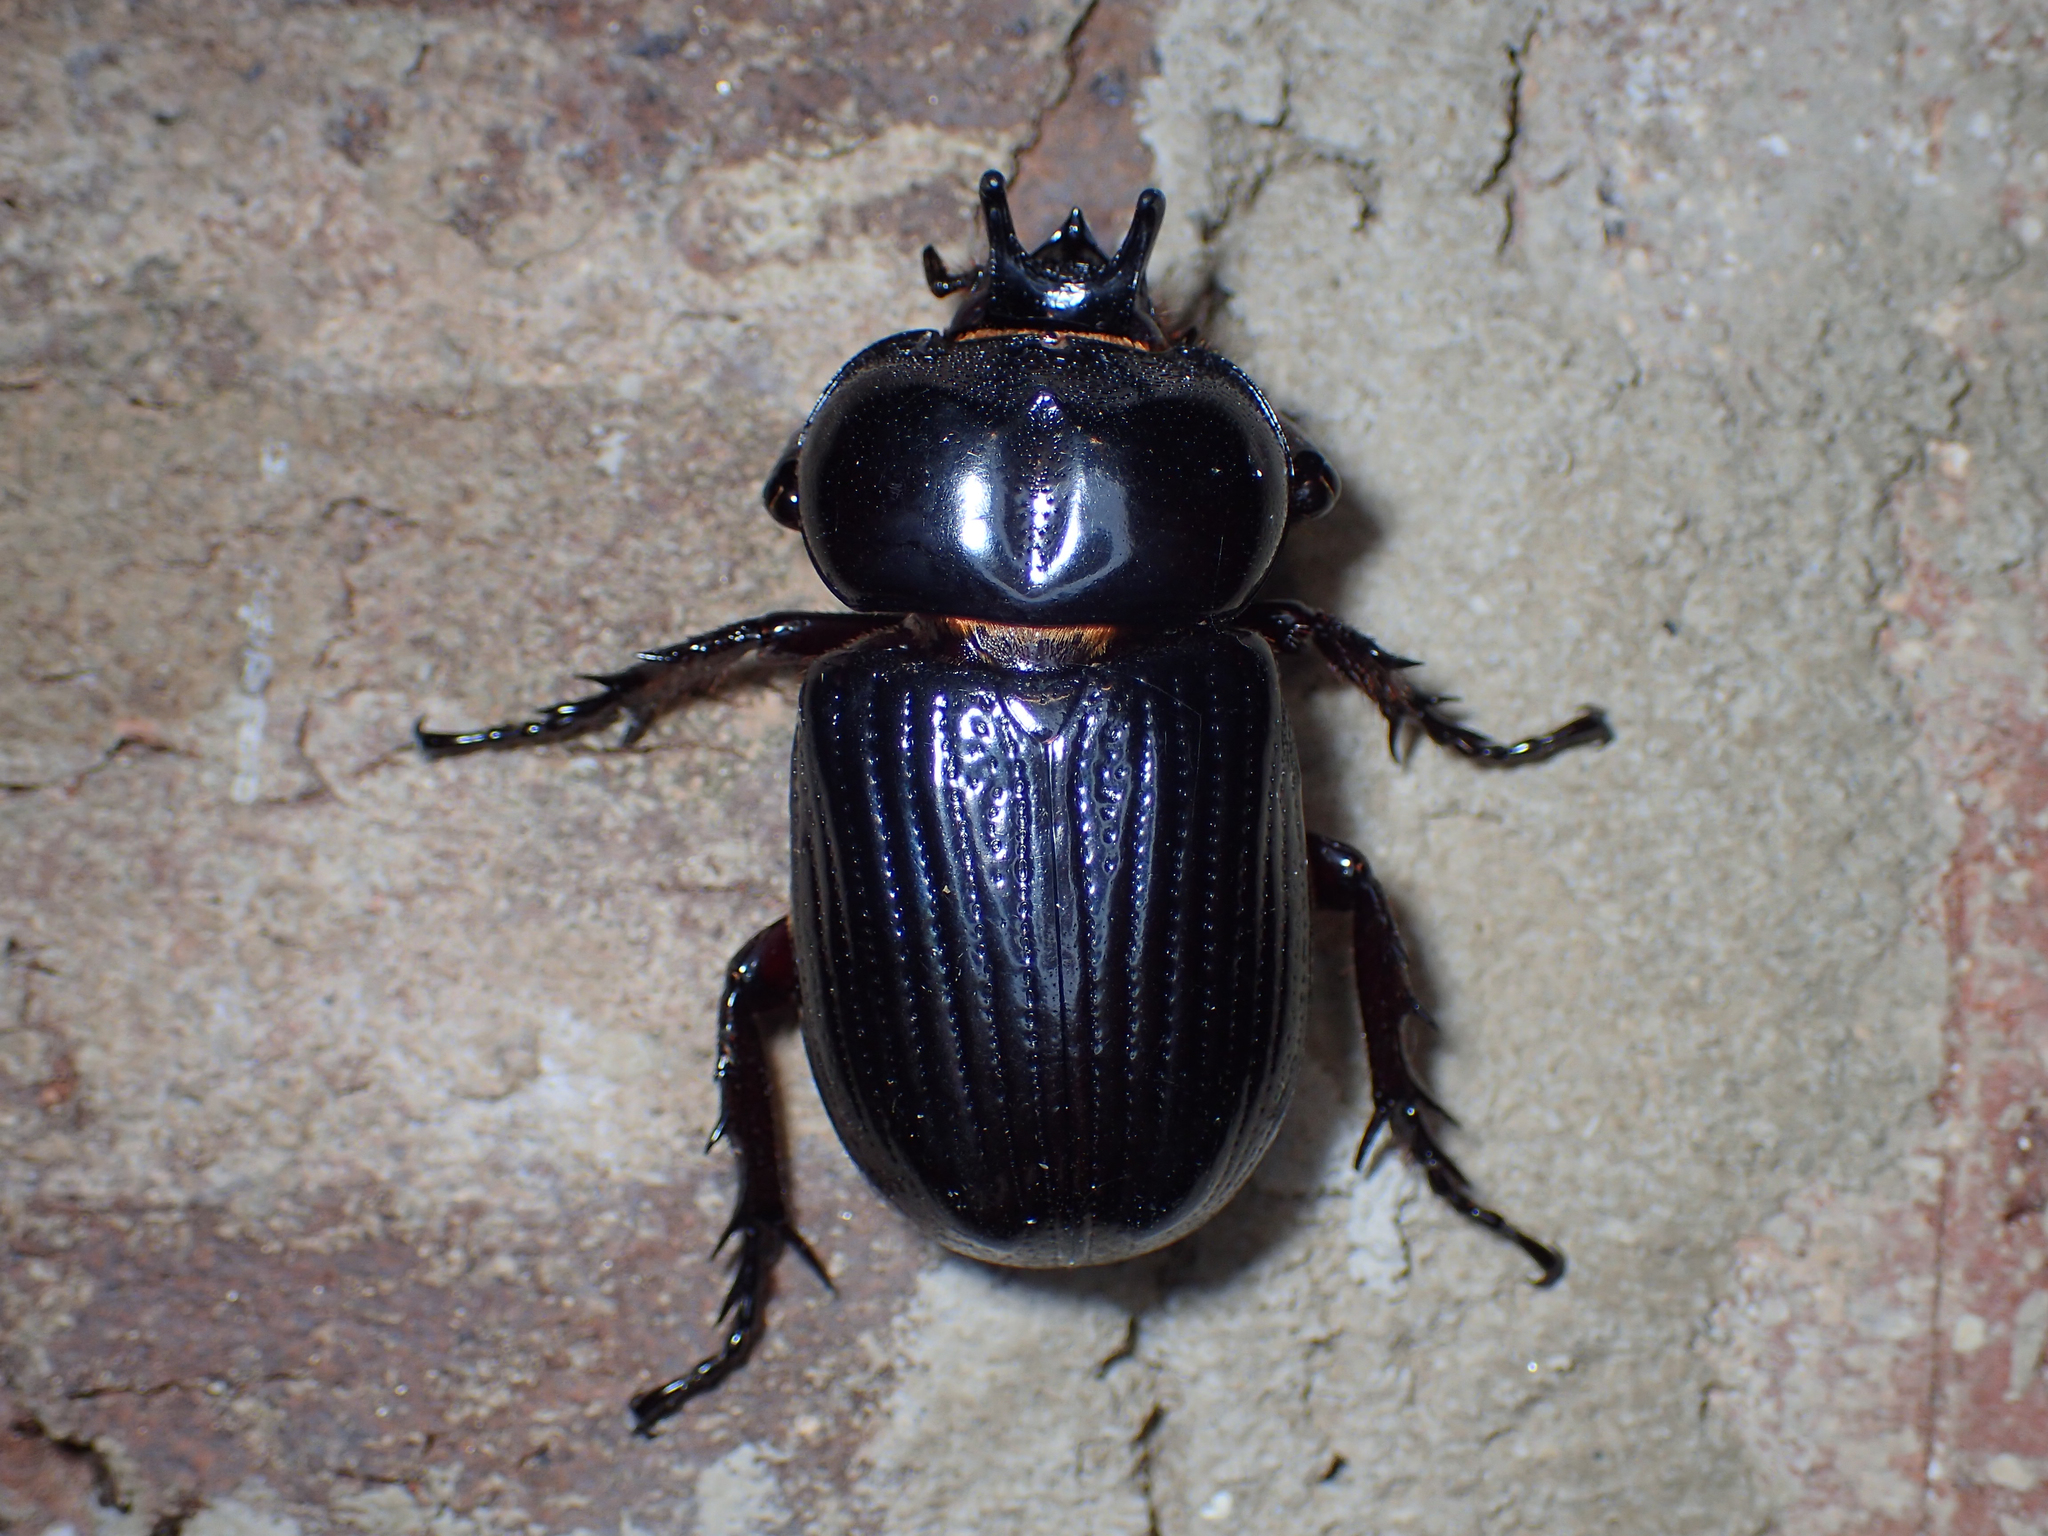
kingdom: Animalia
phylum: Arthropoda
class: Insecta
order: Coleoptera
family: Scarabaeidae
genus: Phileurus
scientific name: Phileurus truncatus
